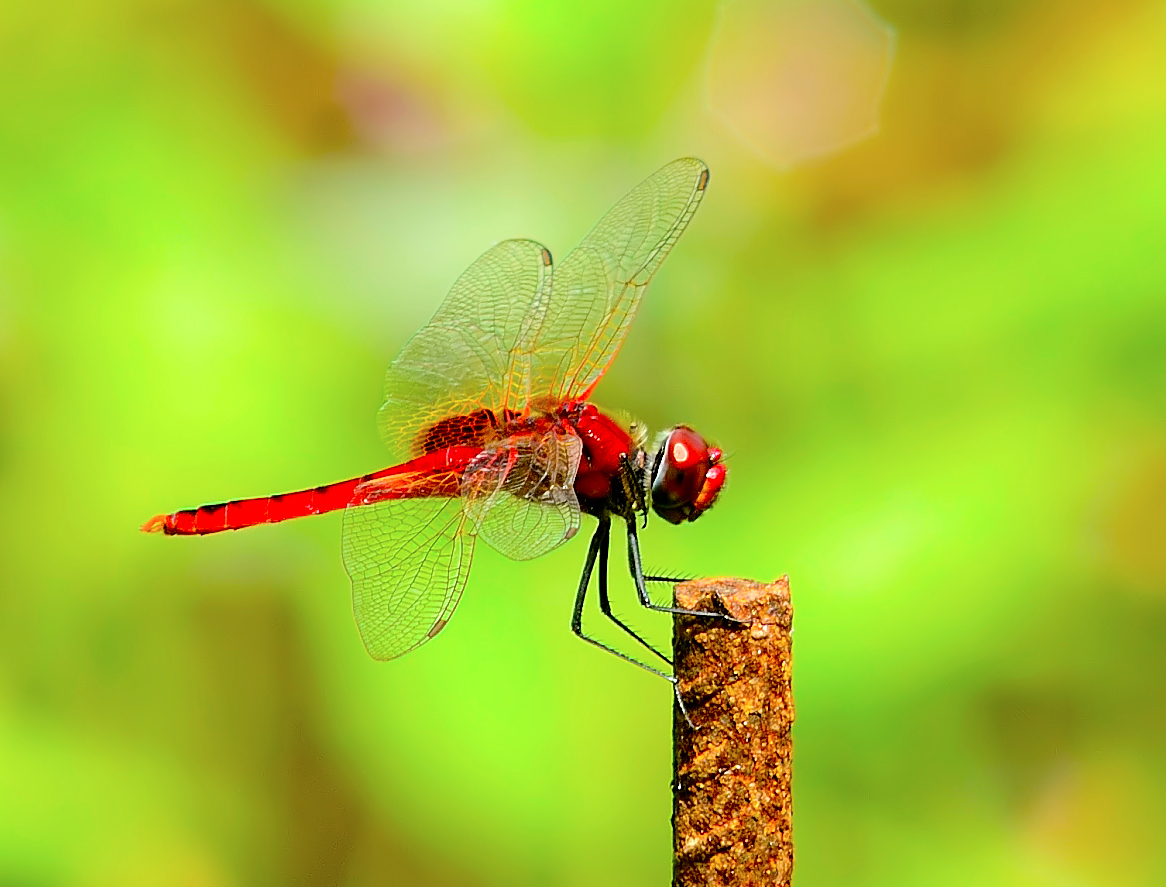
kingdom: Animalia
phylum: Arthropoda
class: Insecta
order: Odonata
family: Libellulidae
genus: Urothemis
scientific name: Urothemis signata
